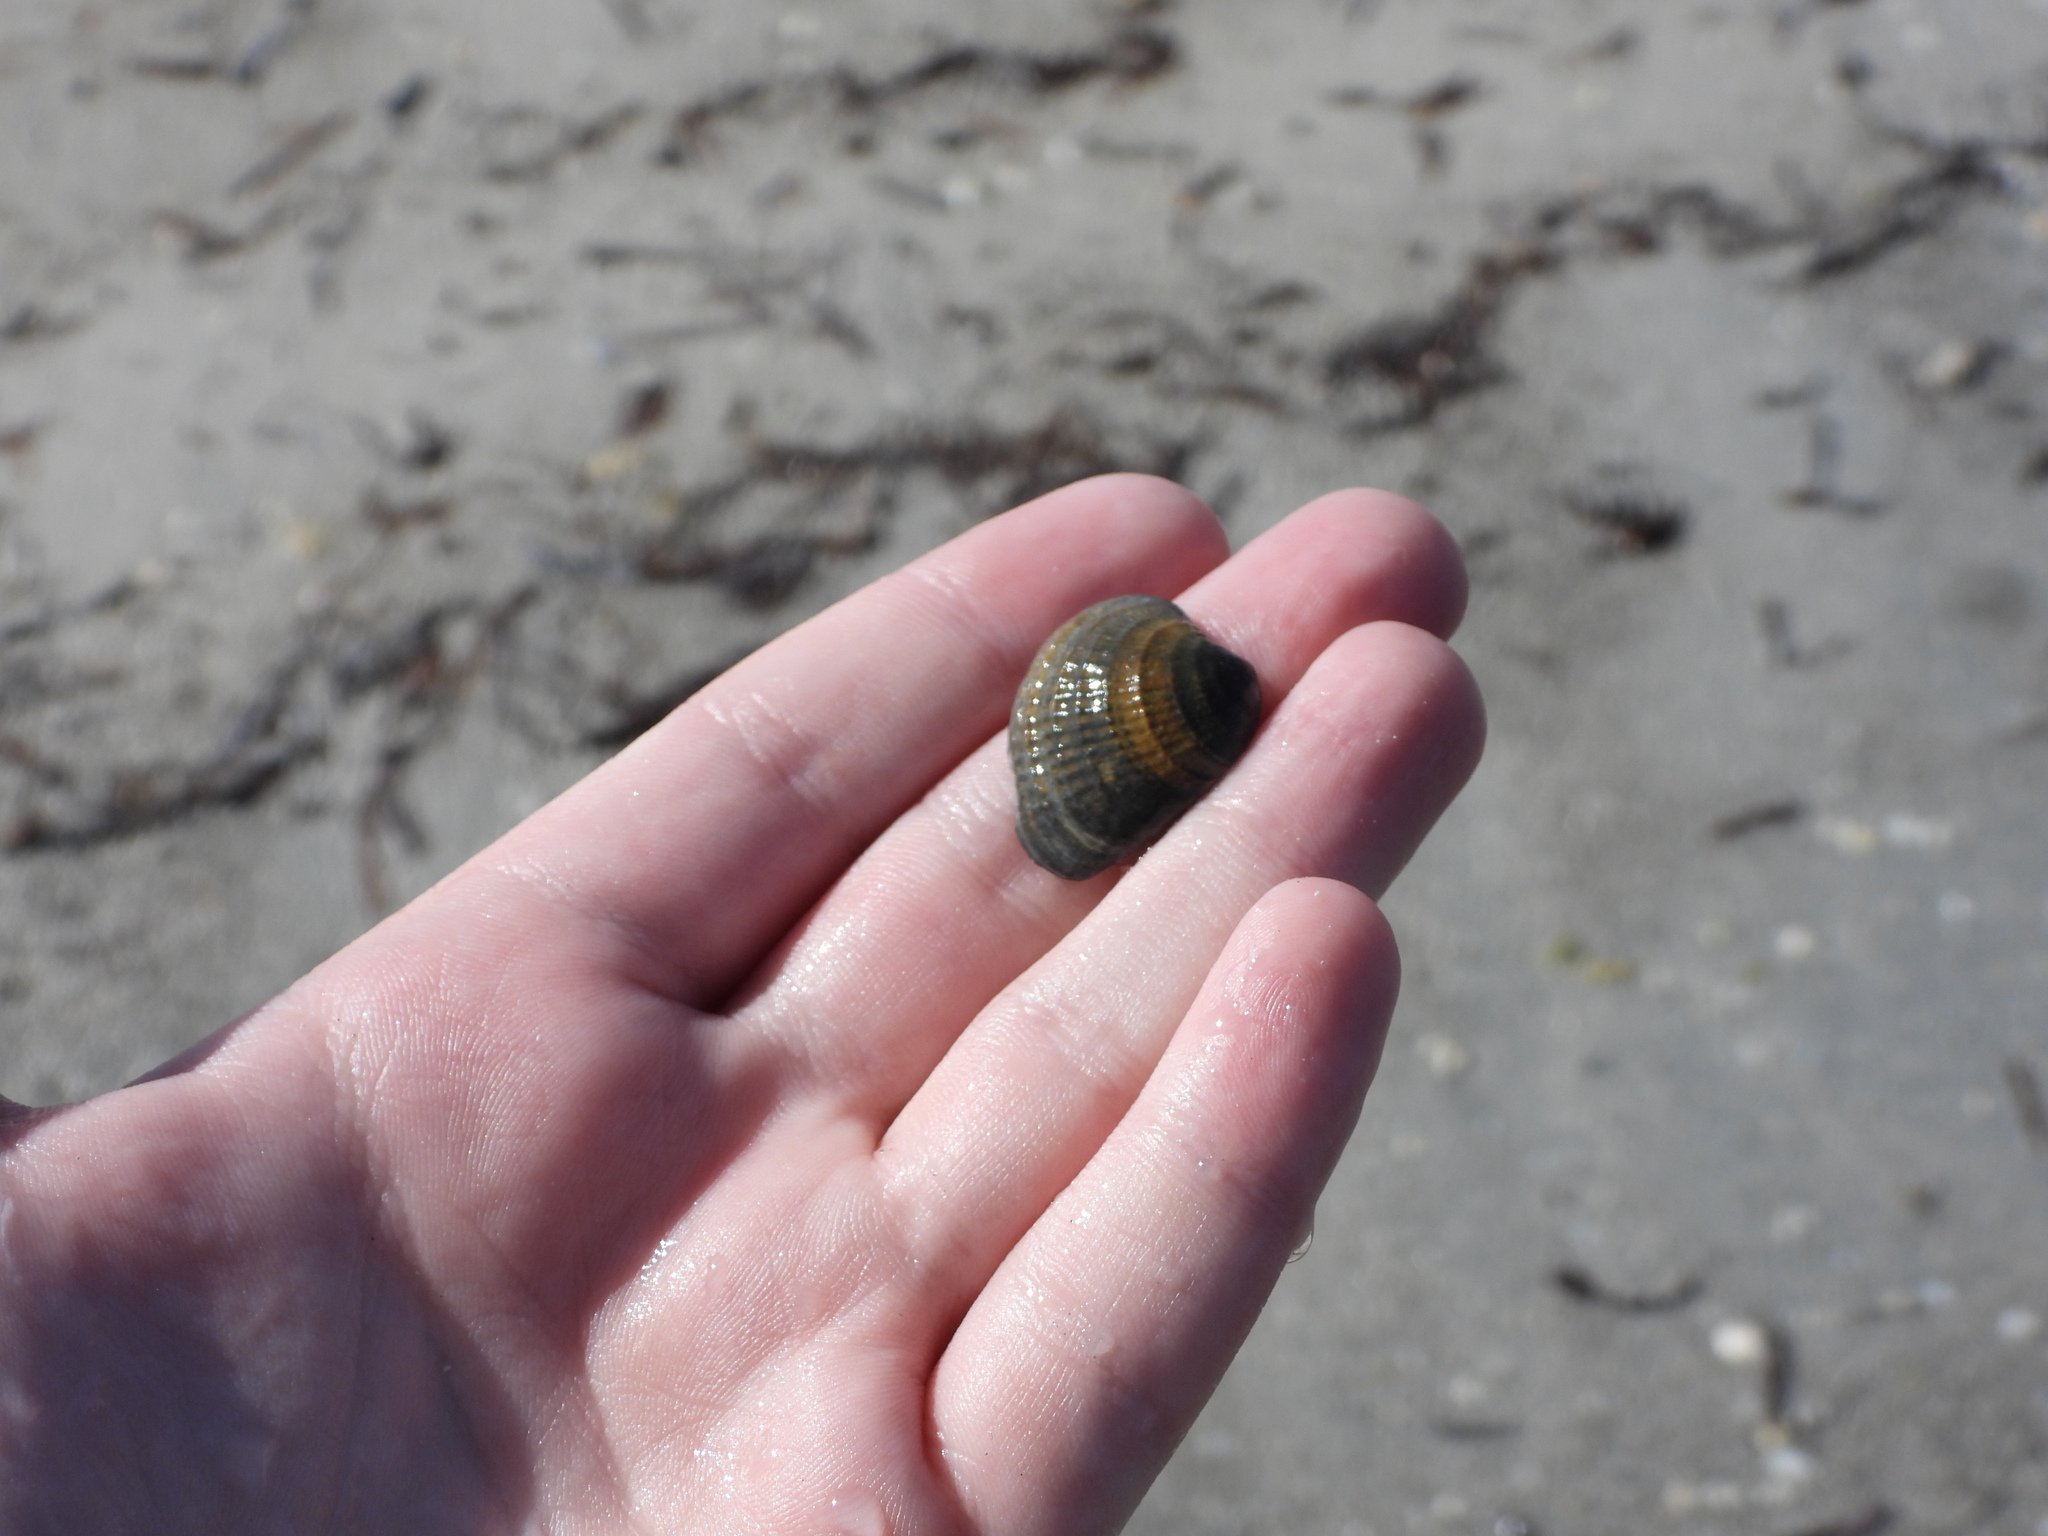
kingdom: Animalia
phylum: Mollusca
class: Bivalvia
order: Venerida
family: Veneridae
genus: Chione
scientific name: Chione elevata
